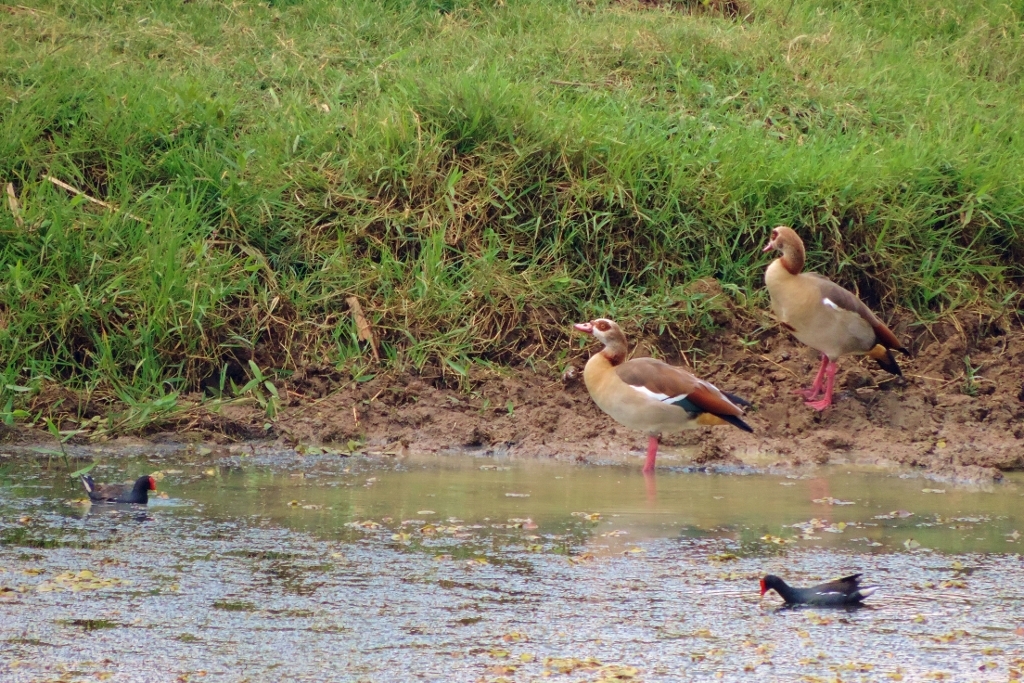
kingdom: Animalia
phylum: Chordata
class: Aves
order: Gruiformes
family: Rallidae
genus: Gallinula
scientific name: Gallinula chloropus
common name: Common moorhen
